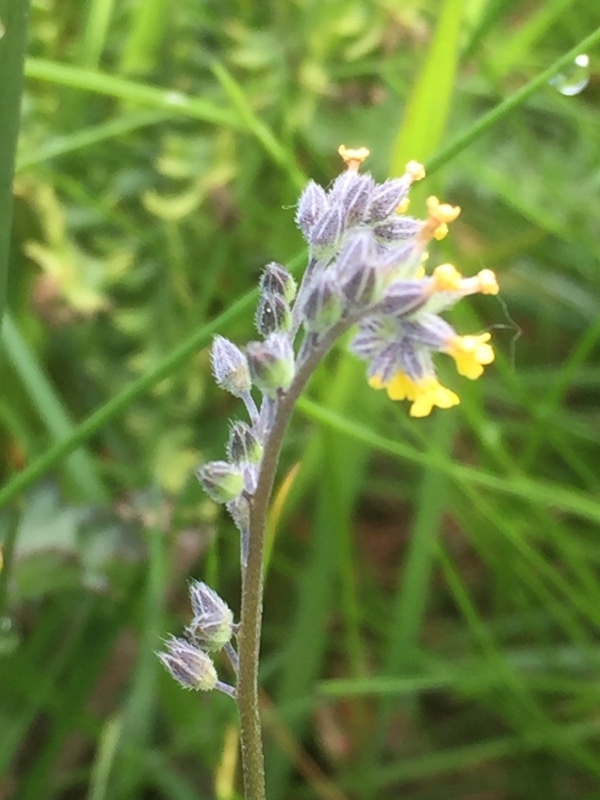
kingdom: Plantae
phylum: Tracheophyta
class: Magnoliopsida
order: Boraginales
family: Boraginaceae
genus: Myosotis
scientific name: Myosotis persoonii
